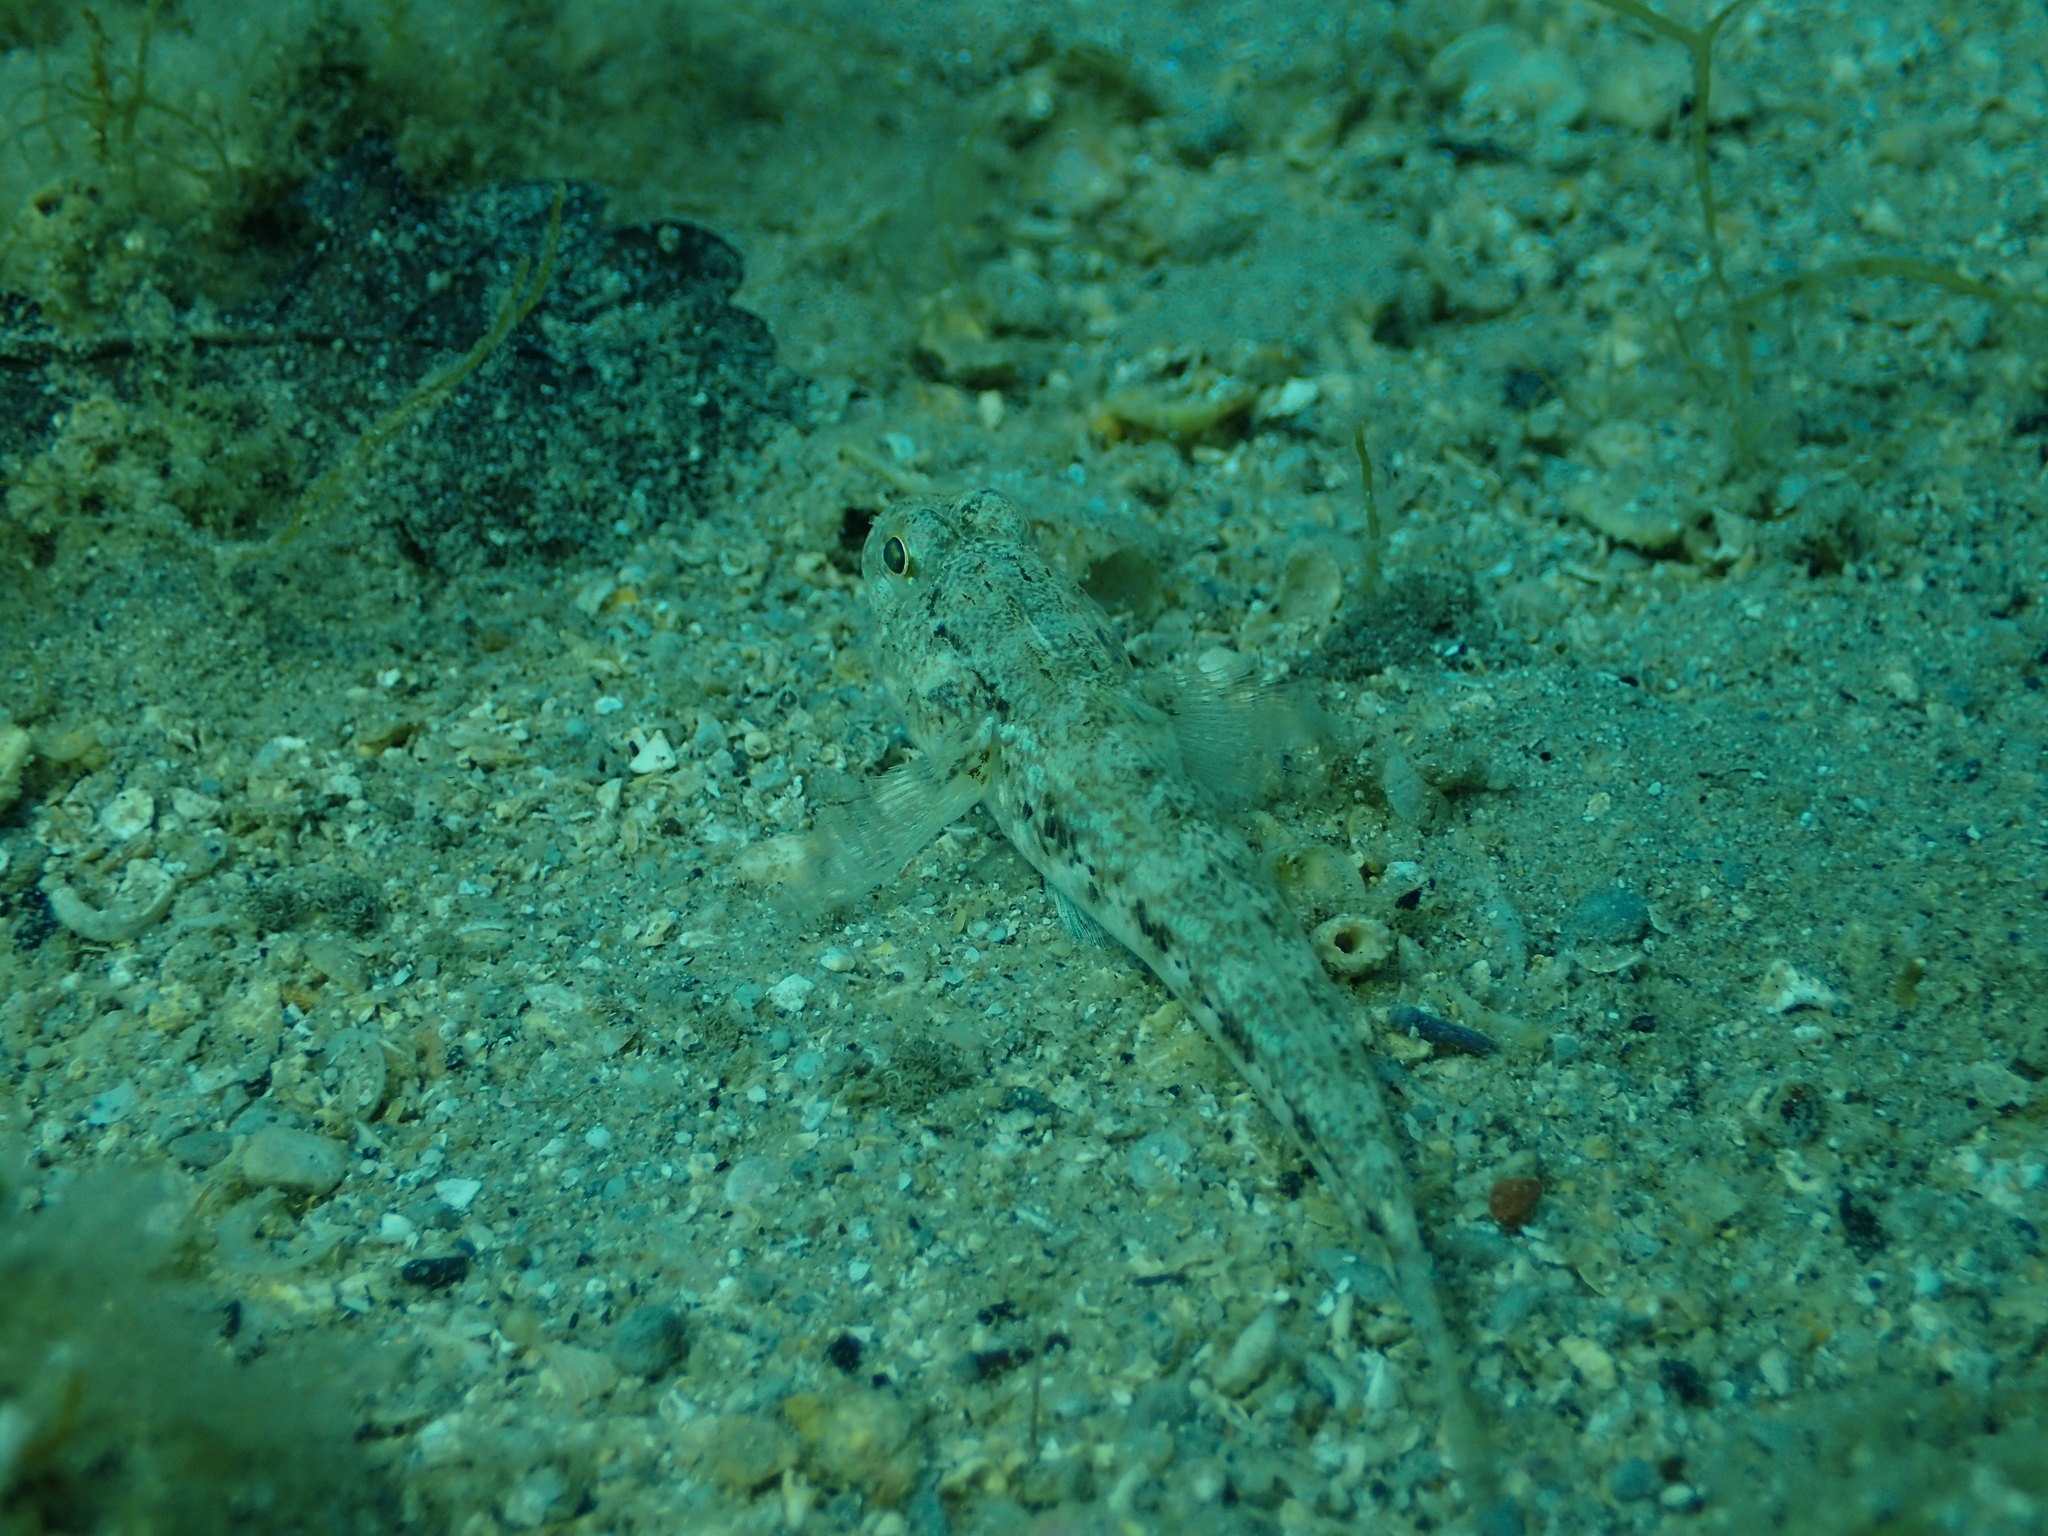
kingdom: Animalia
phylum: Chordata
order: Perciformes
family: Gobiidae
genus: Gobius
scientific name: Gobius niger
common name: Black goby
